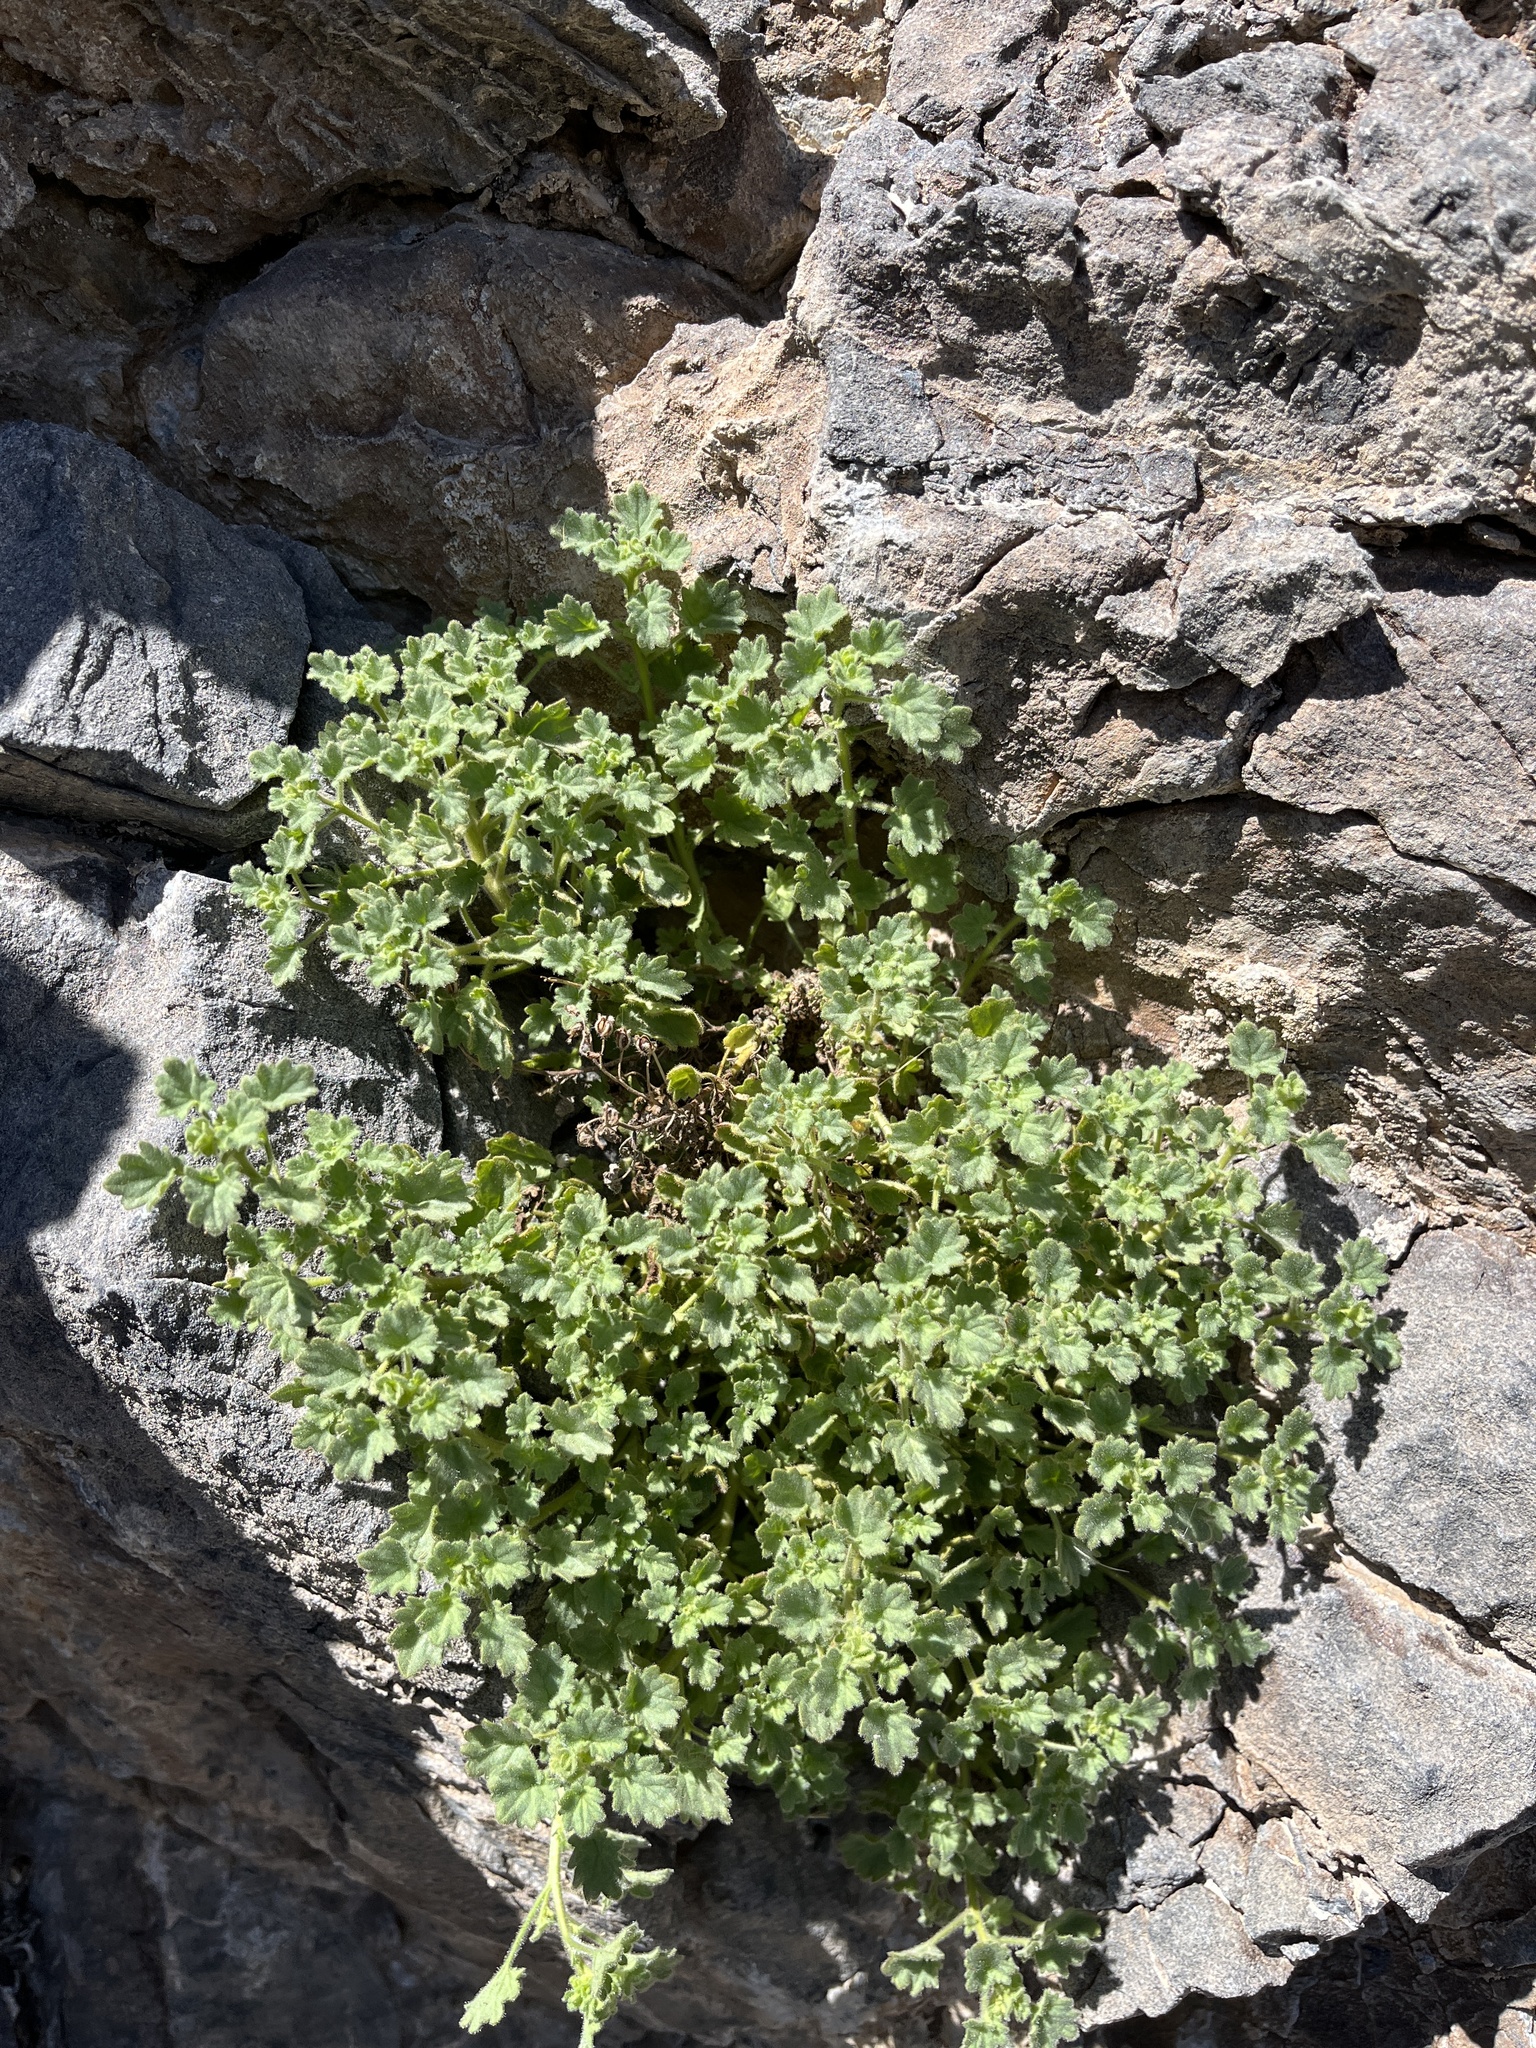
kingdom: Plantae
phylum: Tracheophyta
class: Magnoliopsida
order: Boraginales
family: Hydrophyllaceae
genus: Phacelia
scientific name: Phacelia perityloides
